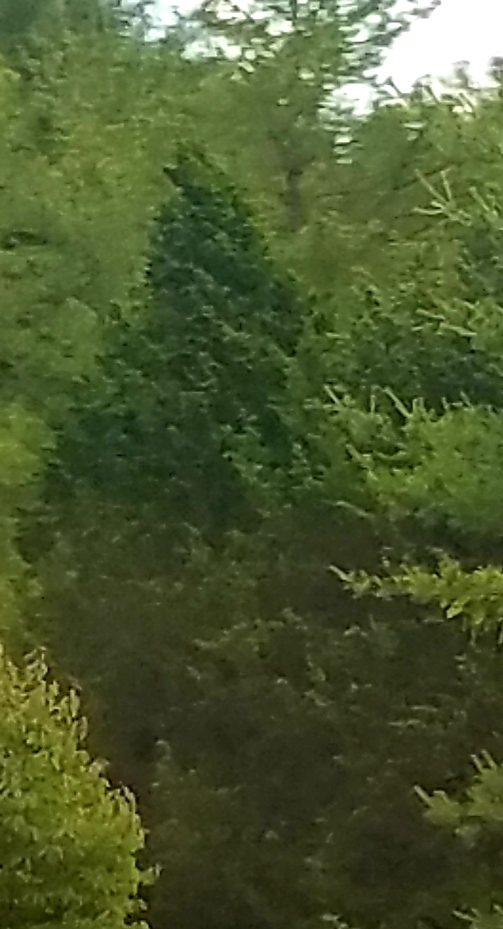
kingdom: Plantae
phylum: Tracheophyta
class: Pinopsida
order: Pinales
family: Cupressaceae
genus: Juniperus
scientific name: Juniperus virginiana
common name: Red juniper
